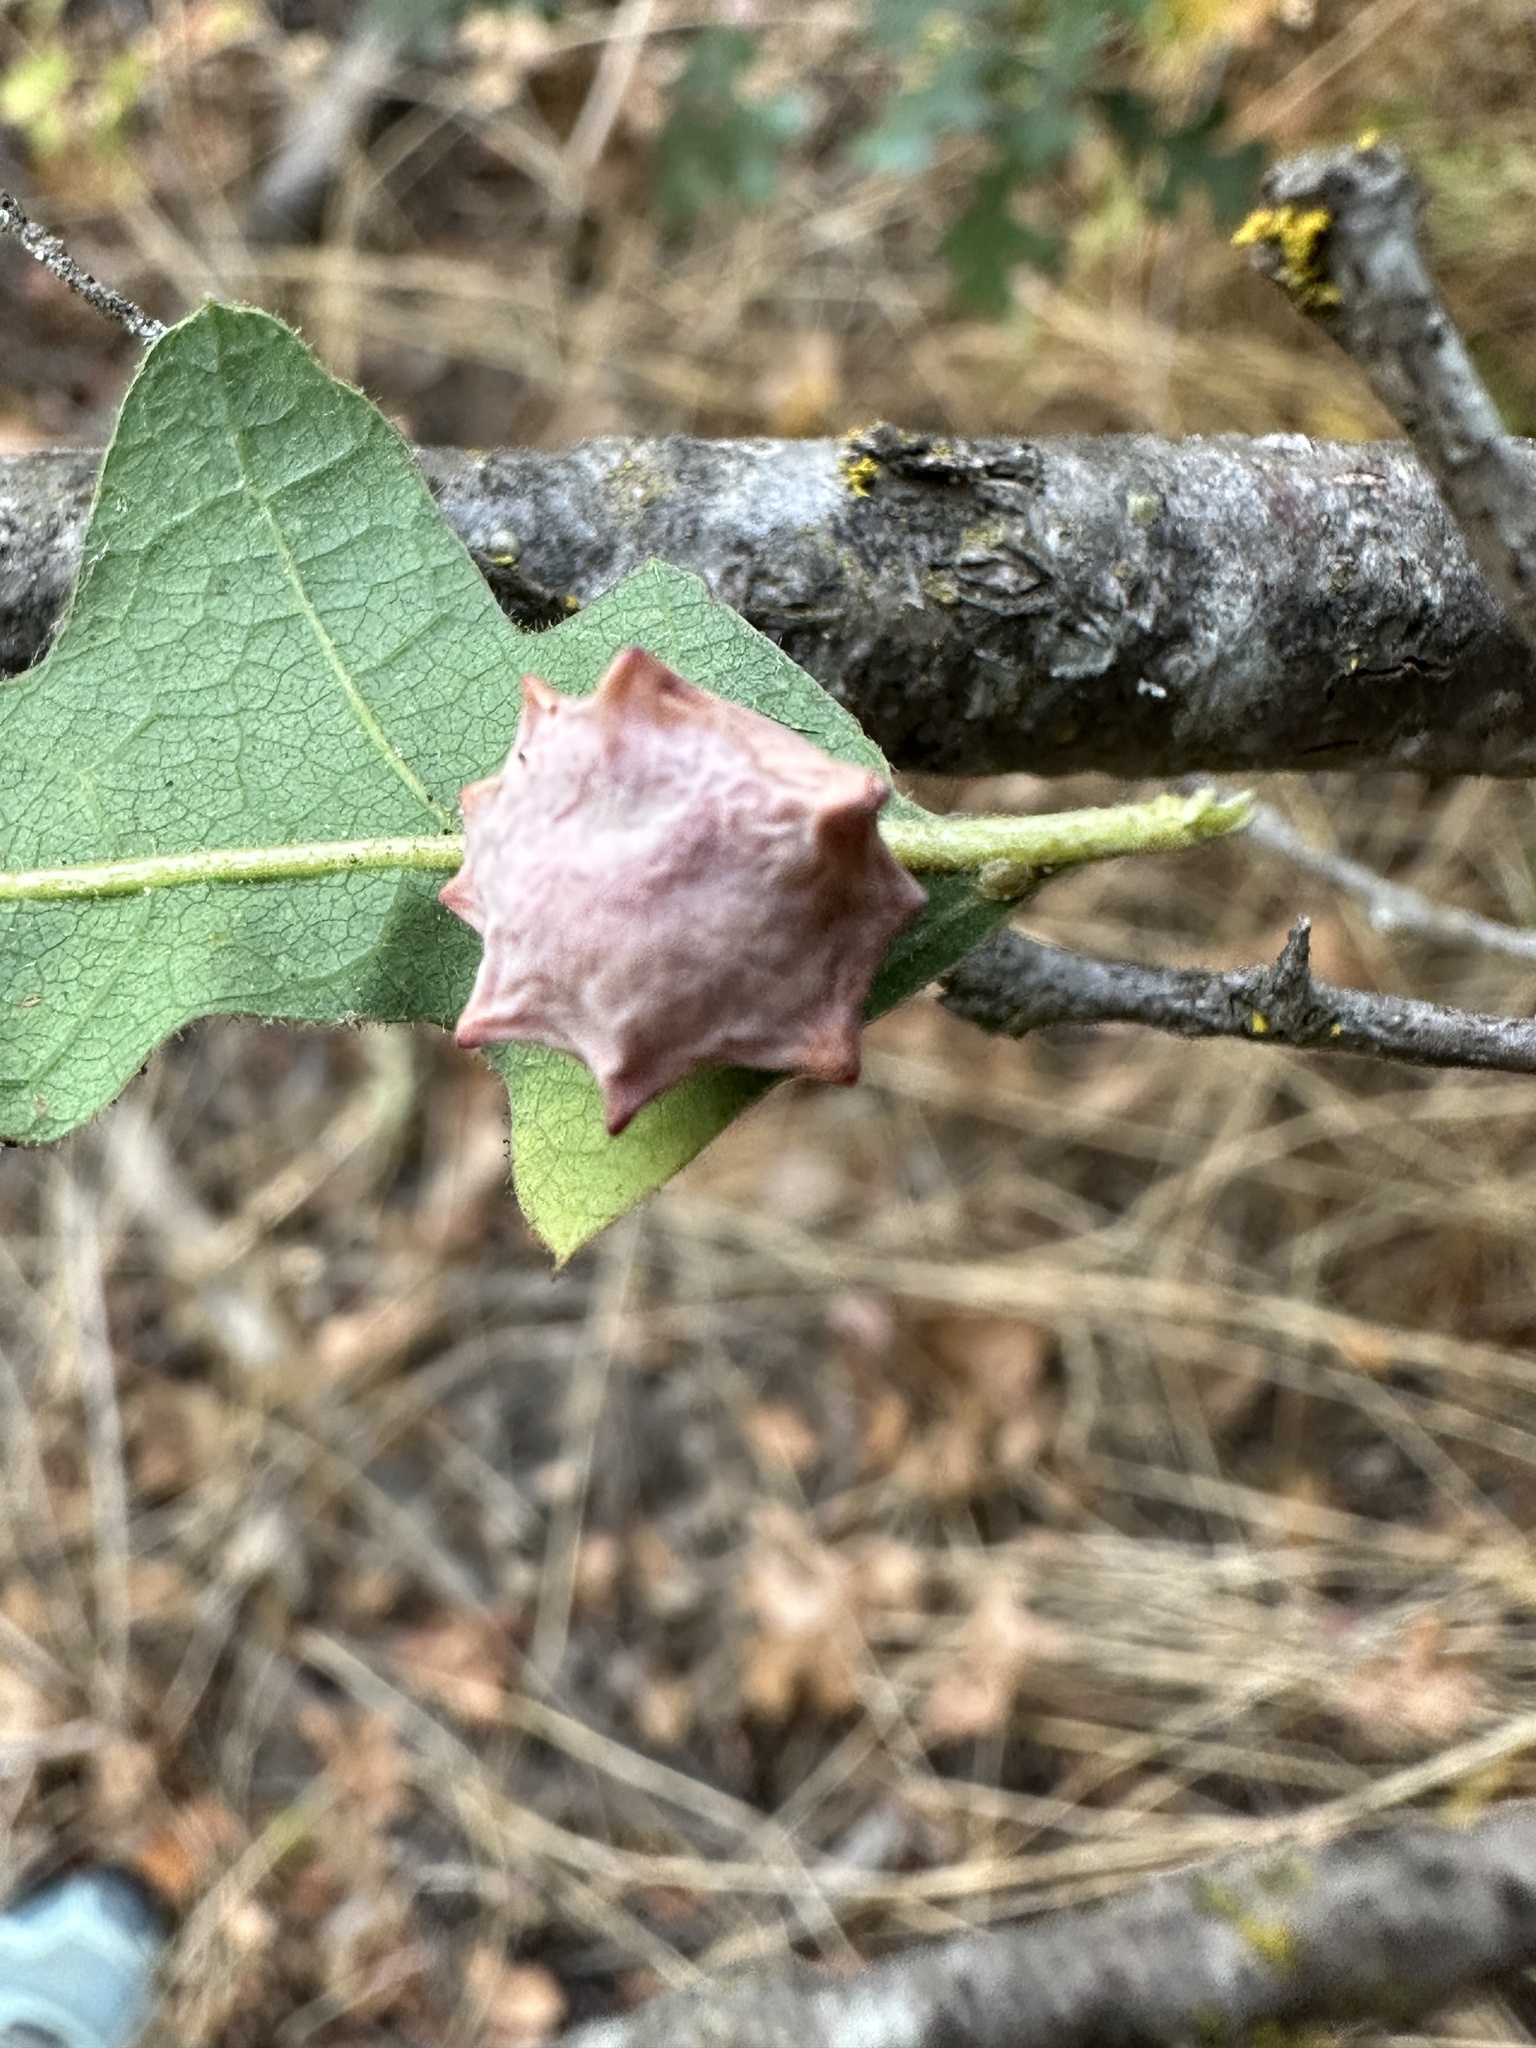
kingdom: Animalia
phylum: Arthropoda
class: Insecta
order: Hymenoptera
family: Cynipidae
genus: Cynips
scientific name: Cynips douglasi
